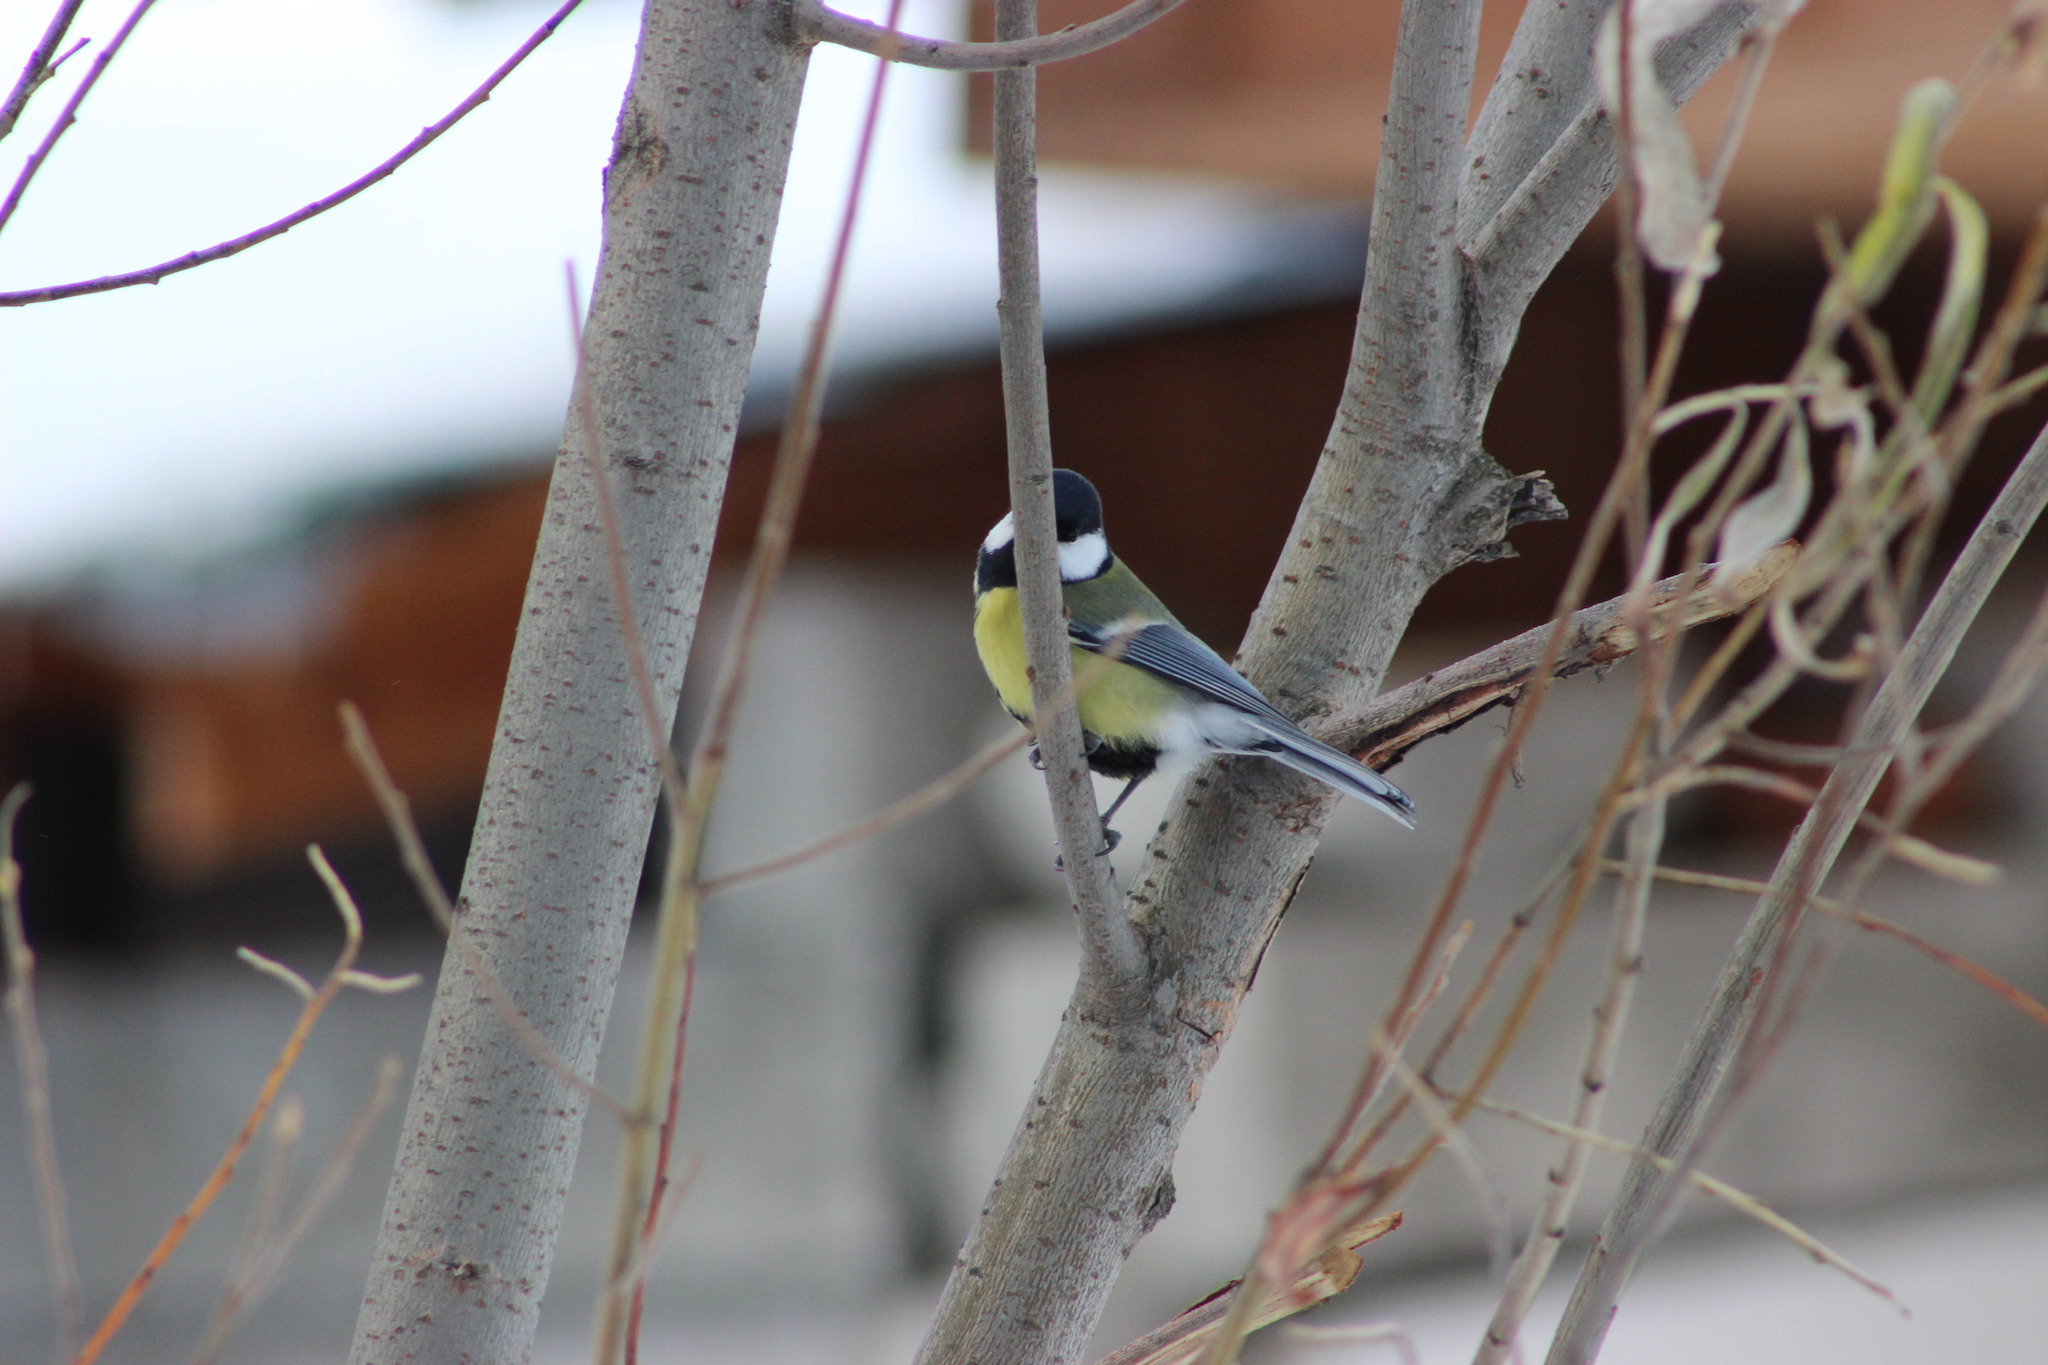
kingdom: Animalia
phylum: Chordata
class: Aves
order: Passeriformes
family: Paridae
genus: Parus
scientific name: Parus major
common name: Great tit
